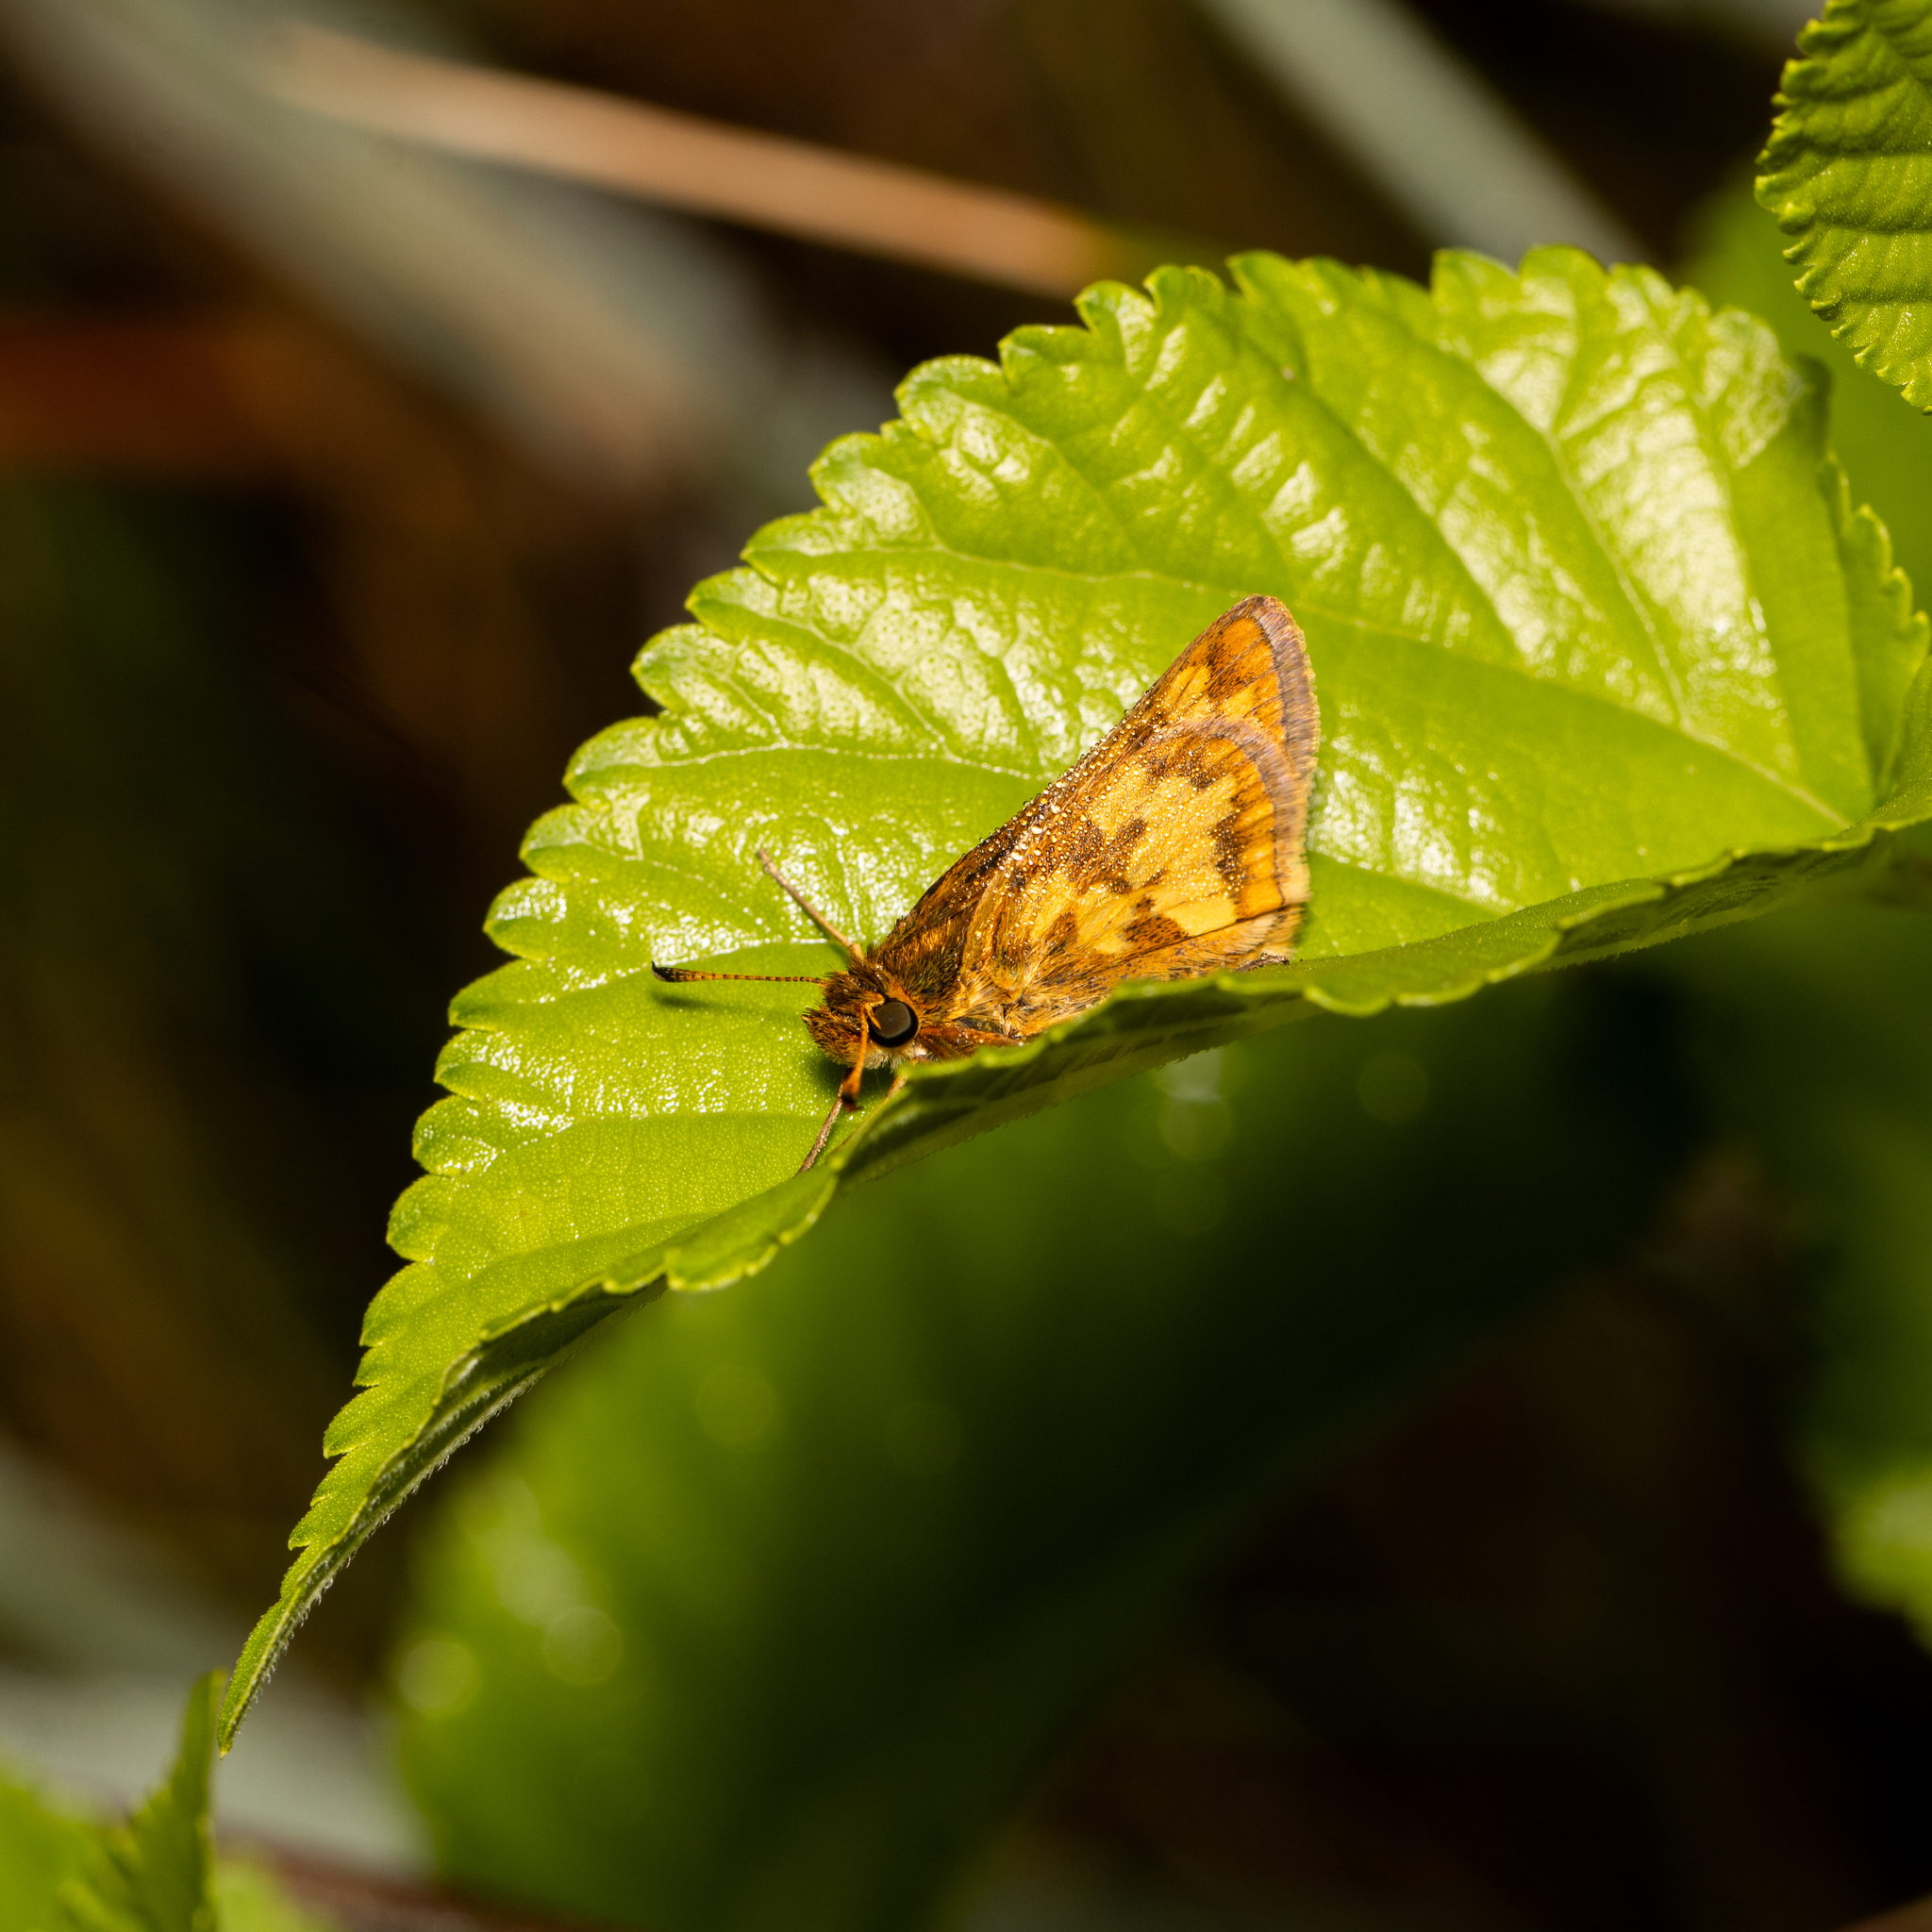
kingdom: Animalia
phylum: Arthropoda
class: Insecta
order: Lepidoptera
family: Hesperiidae
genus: Polites
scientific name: Polites coras
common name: Peck's skipper
